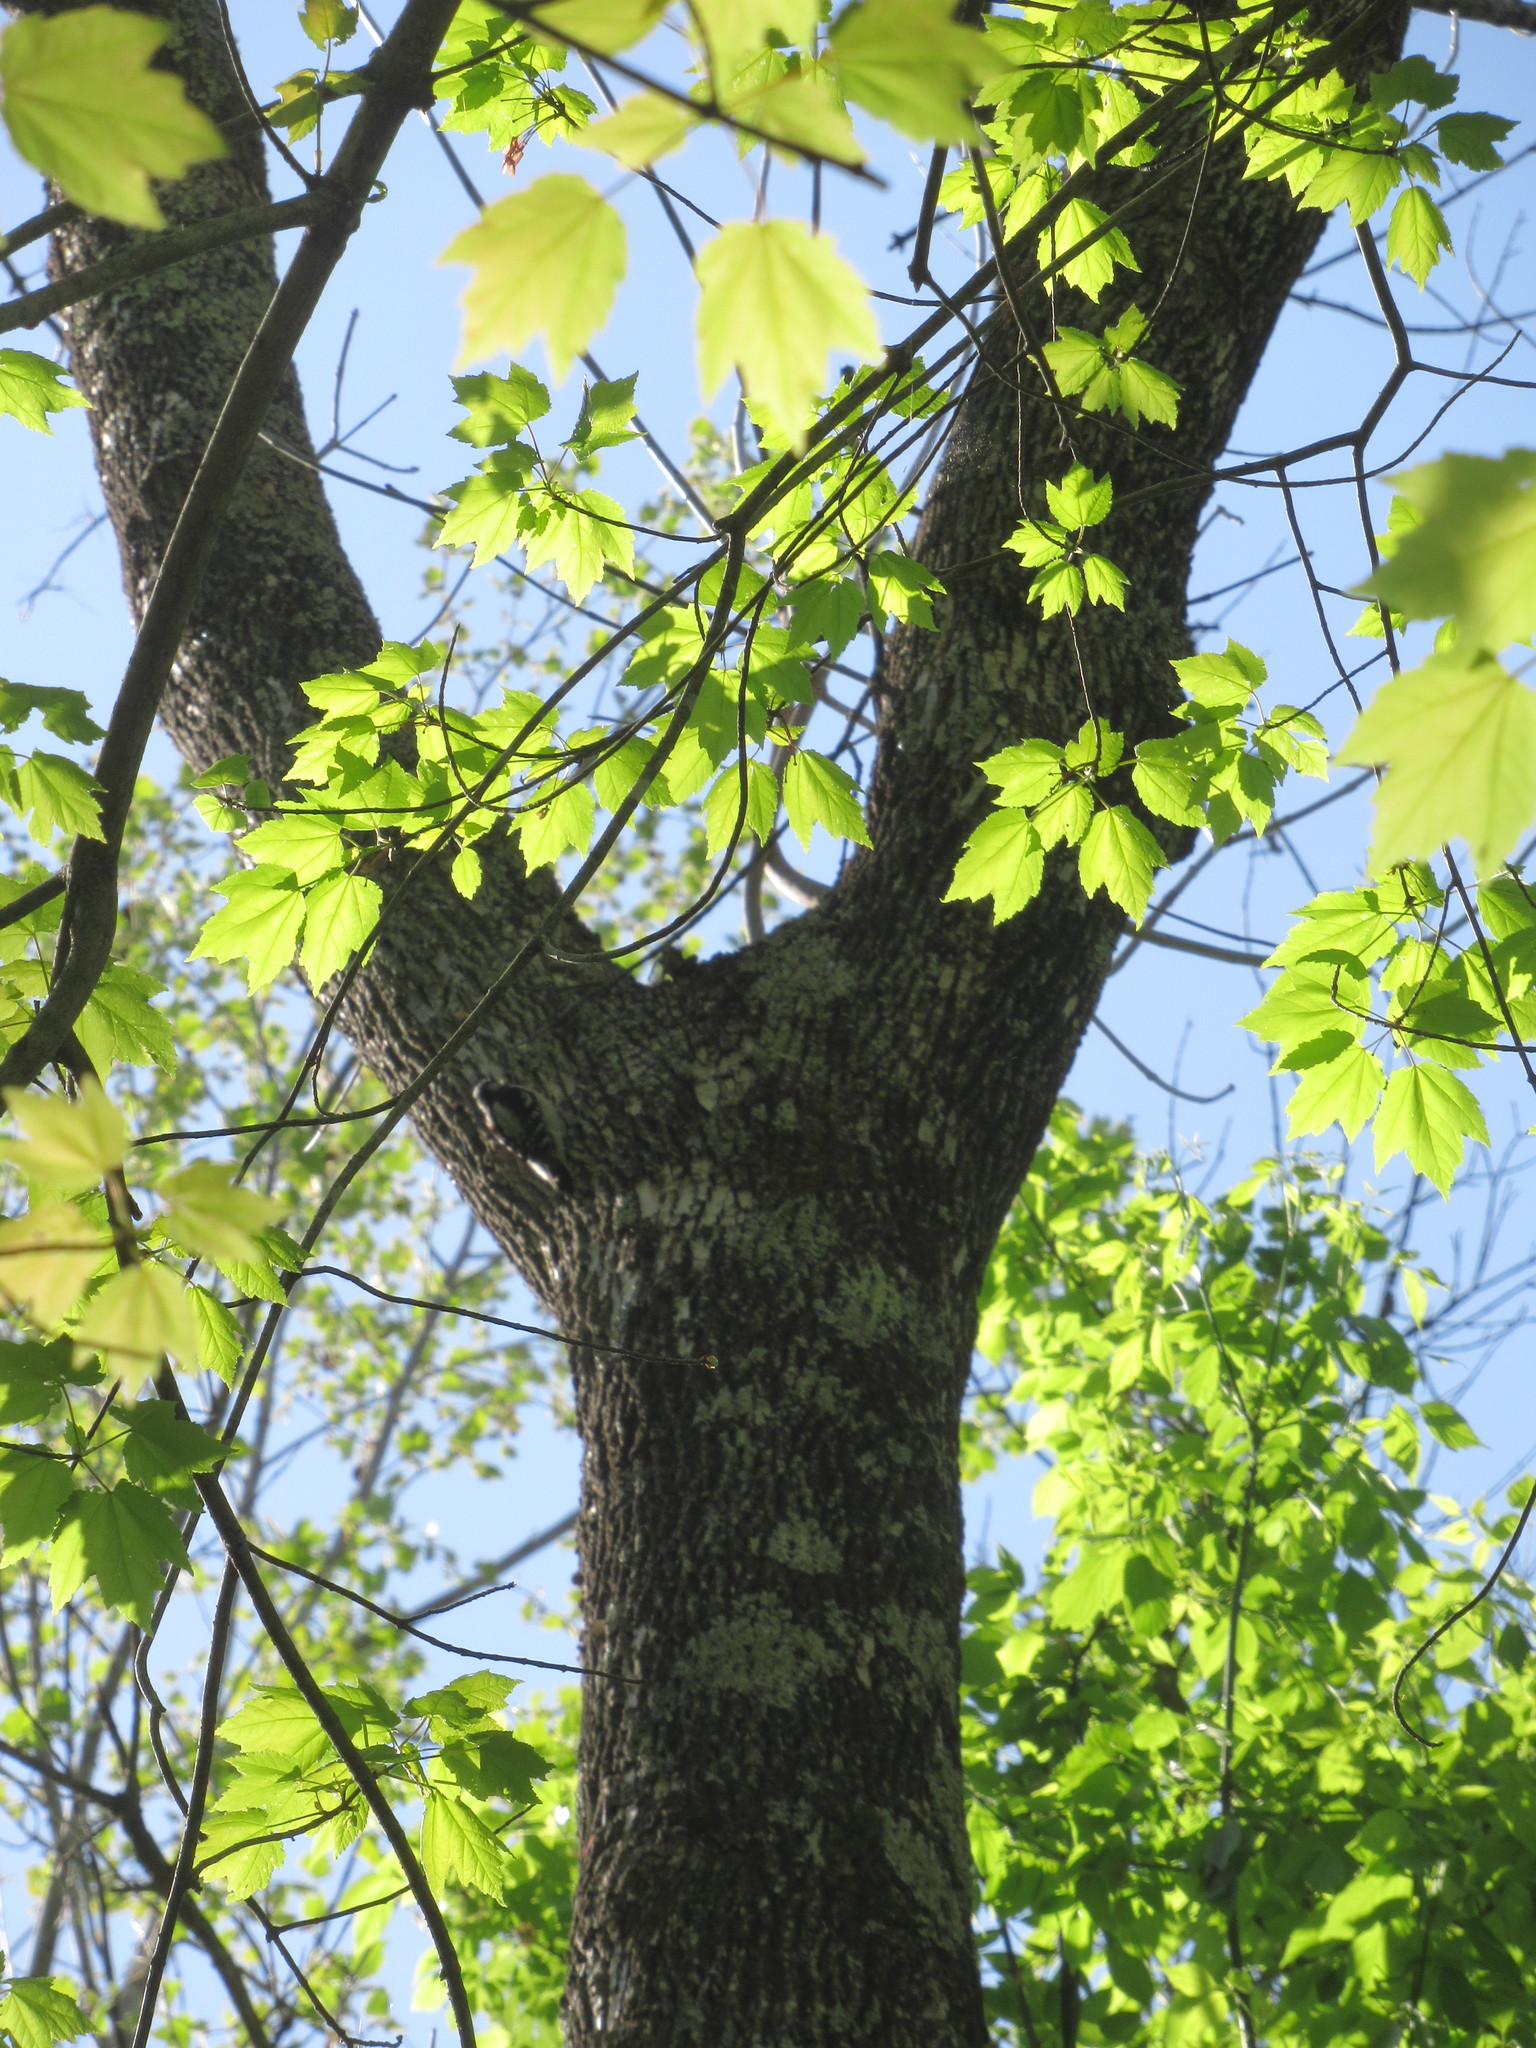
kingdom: Animalia
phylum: Chordata
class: Aves
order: Piciformes
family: Picidae
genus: Dryobates
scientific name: Dryobates pubescens
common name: Downy woodpecker
